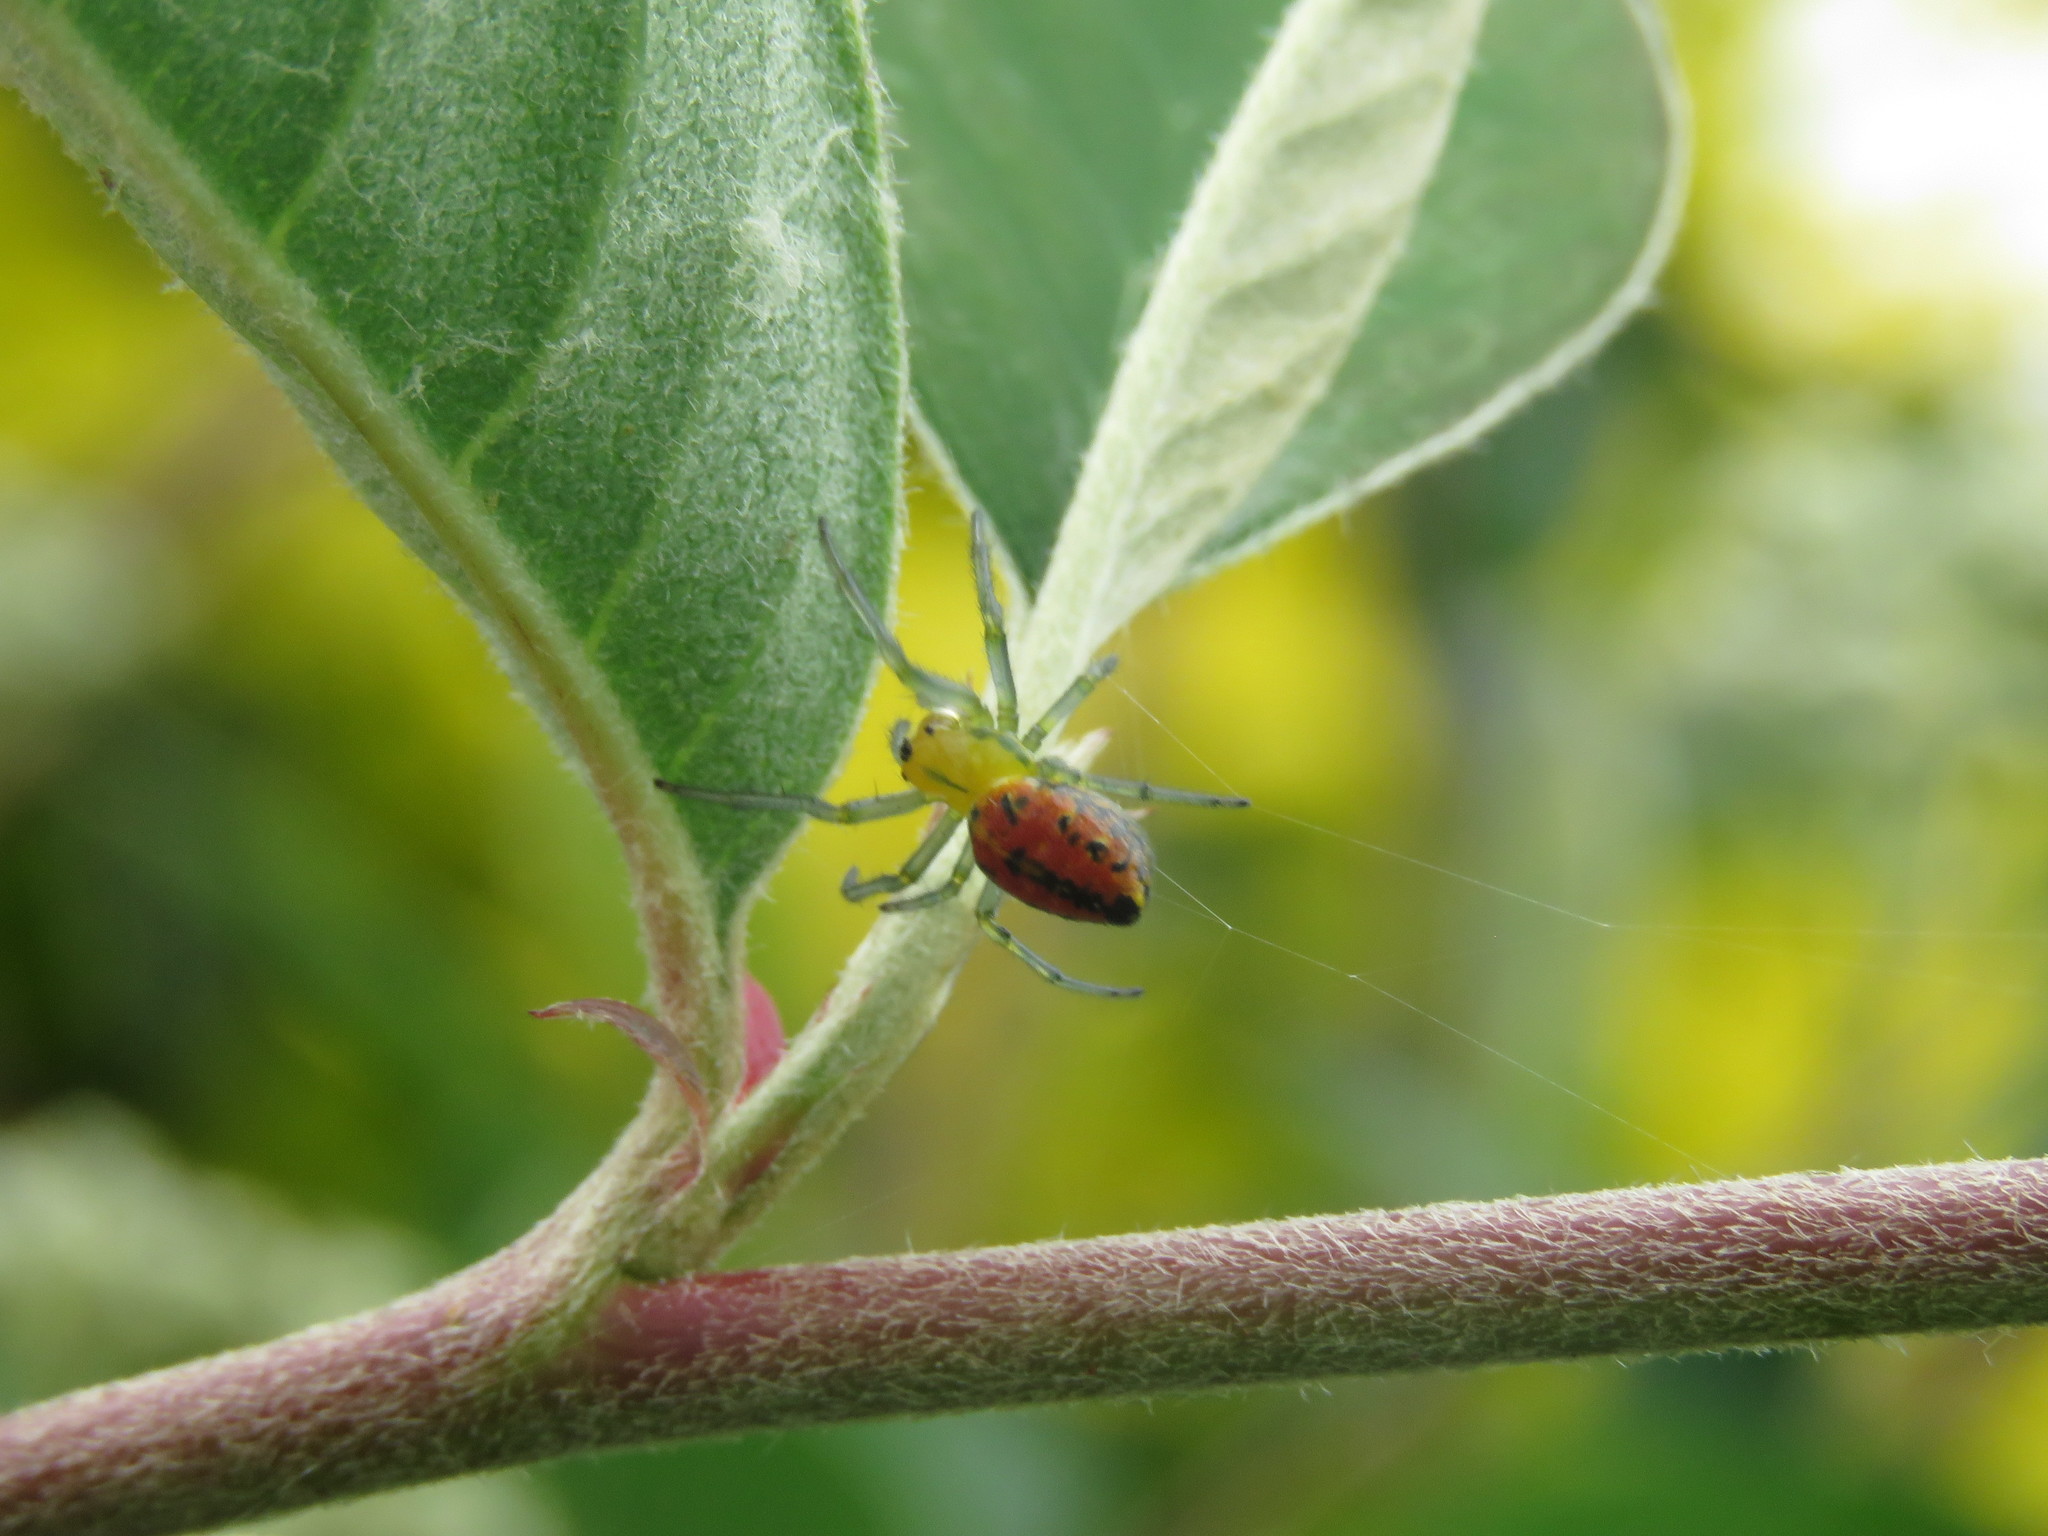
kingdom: Animalia
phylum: Arthropoda
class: Arachnida
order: Araneae
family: Araneidae
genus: Alpaida
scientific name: Alpaida variabilis
